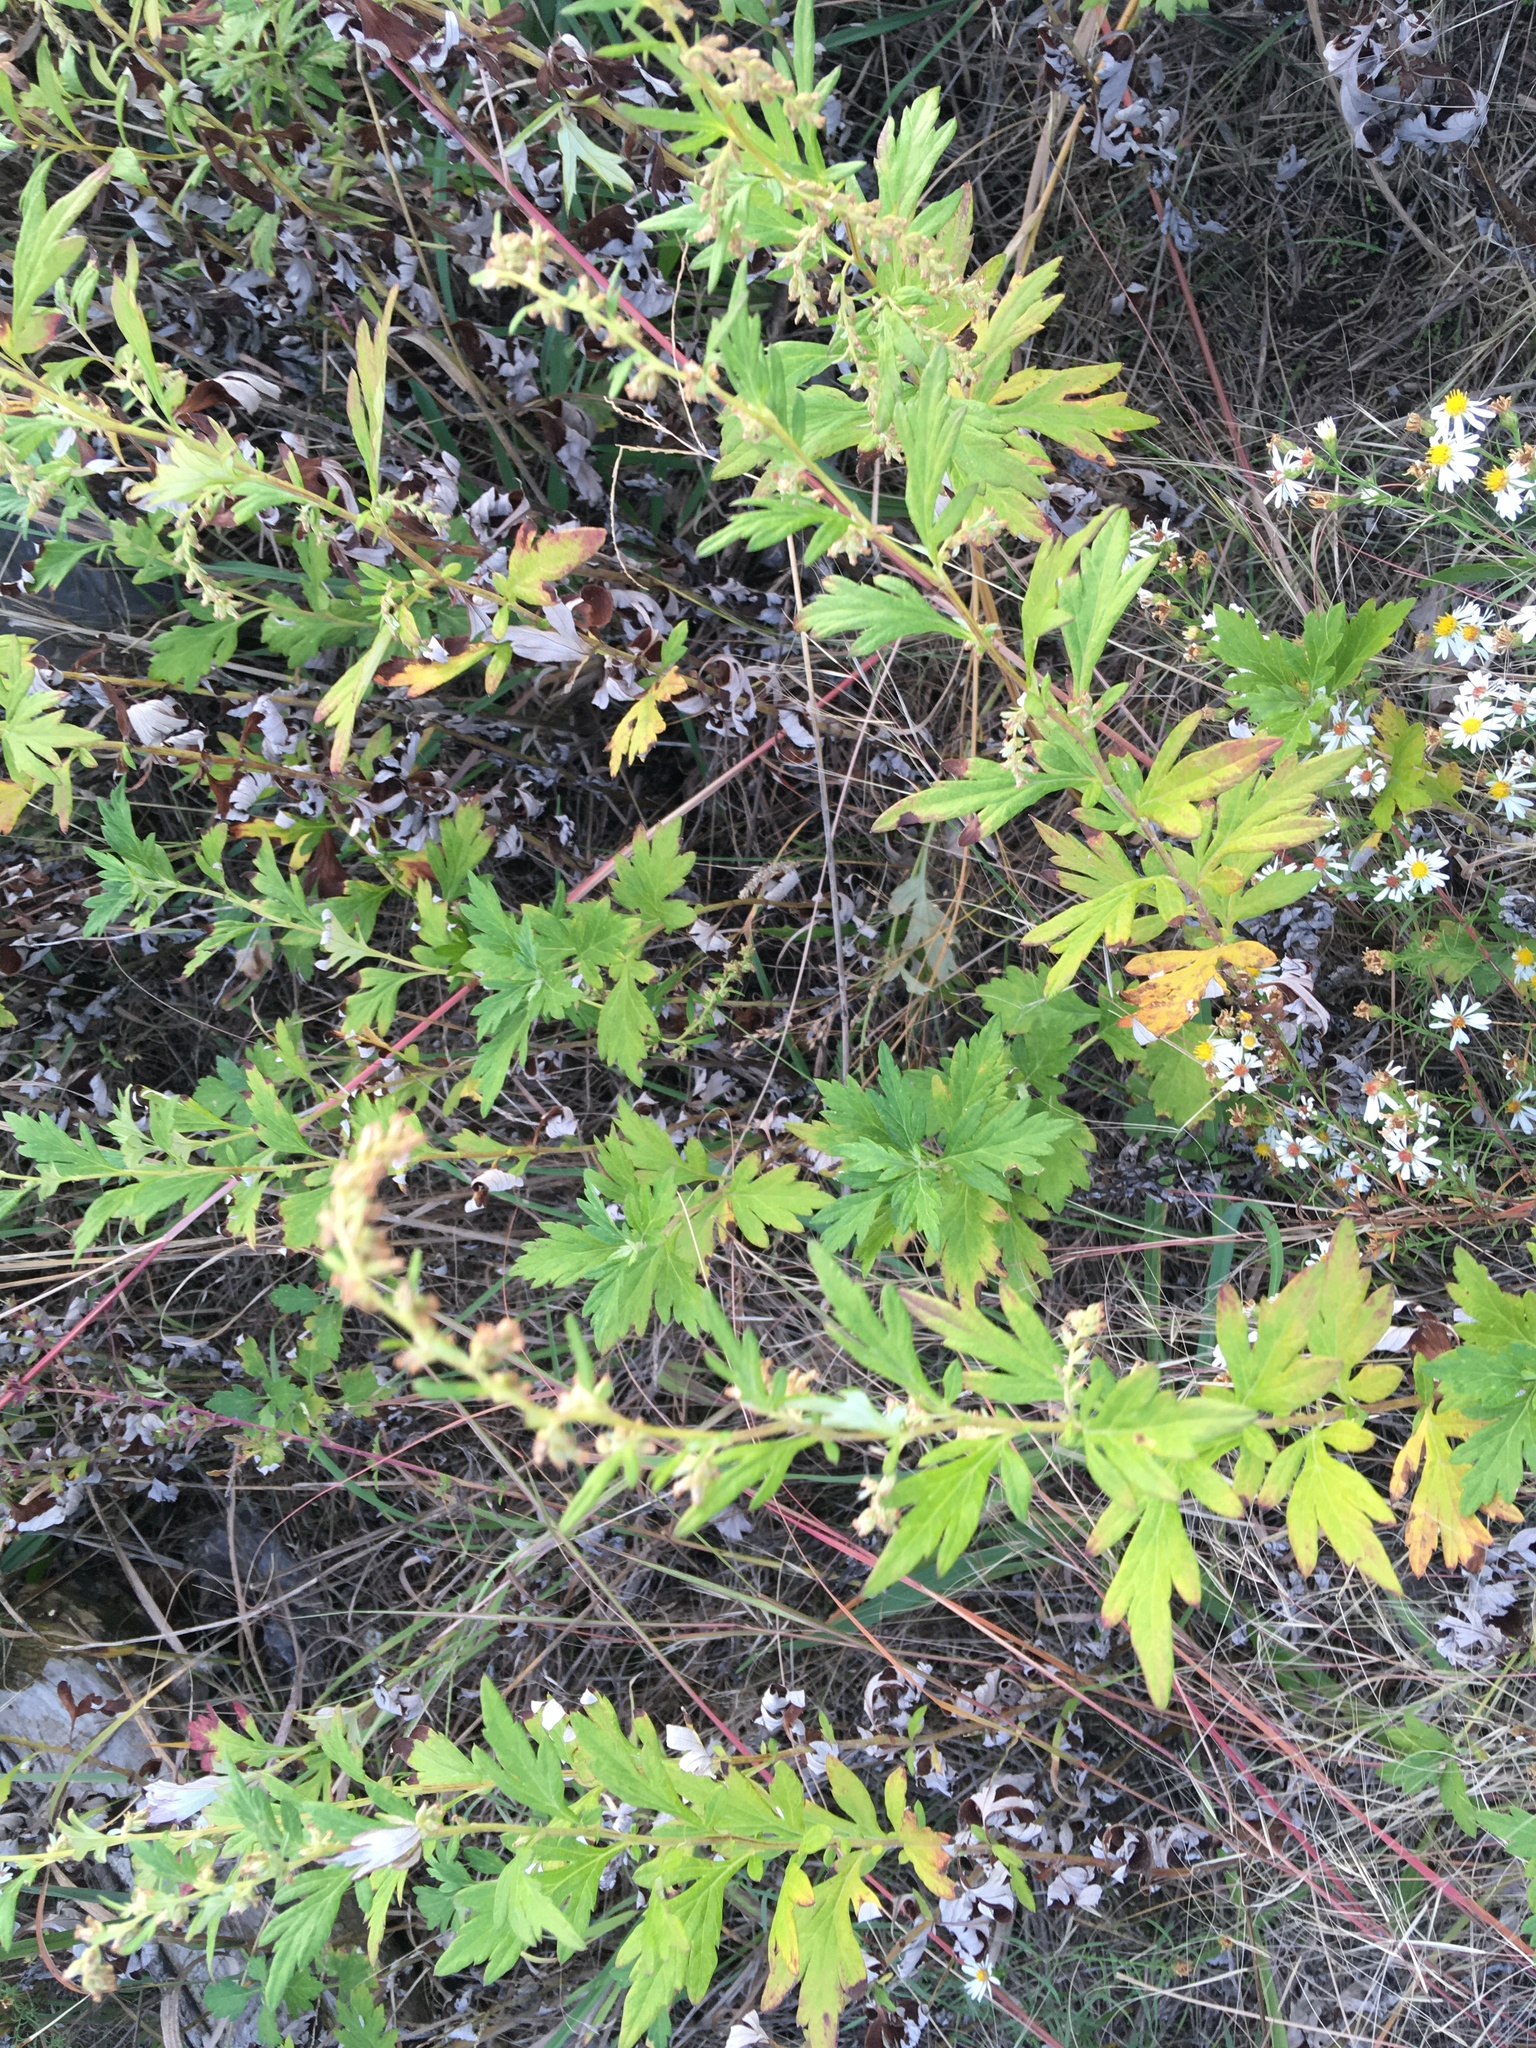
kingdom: Plantae
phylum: Tracheophyta
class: Magnoliopsida
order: Asterales
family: Asteraceae
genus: Artemisia
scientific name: Artemisia vulgaris
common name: Mugwort
